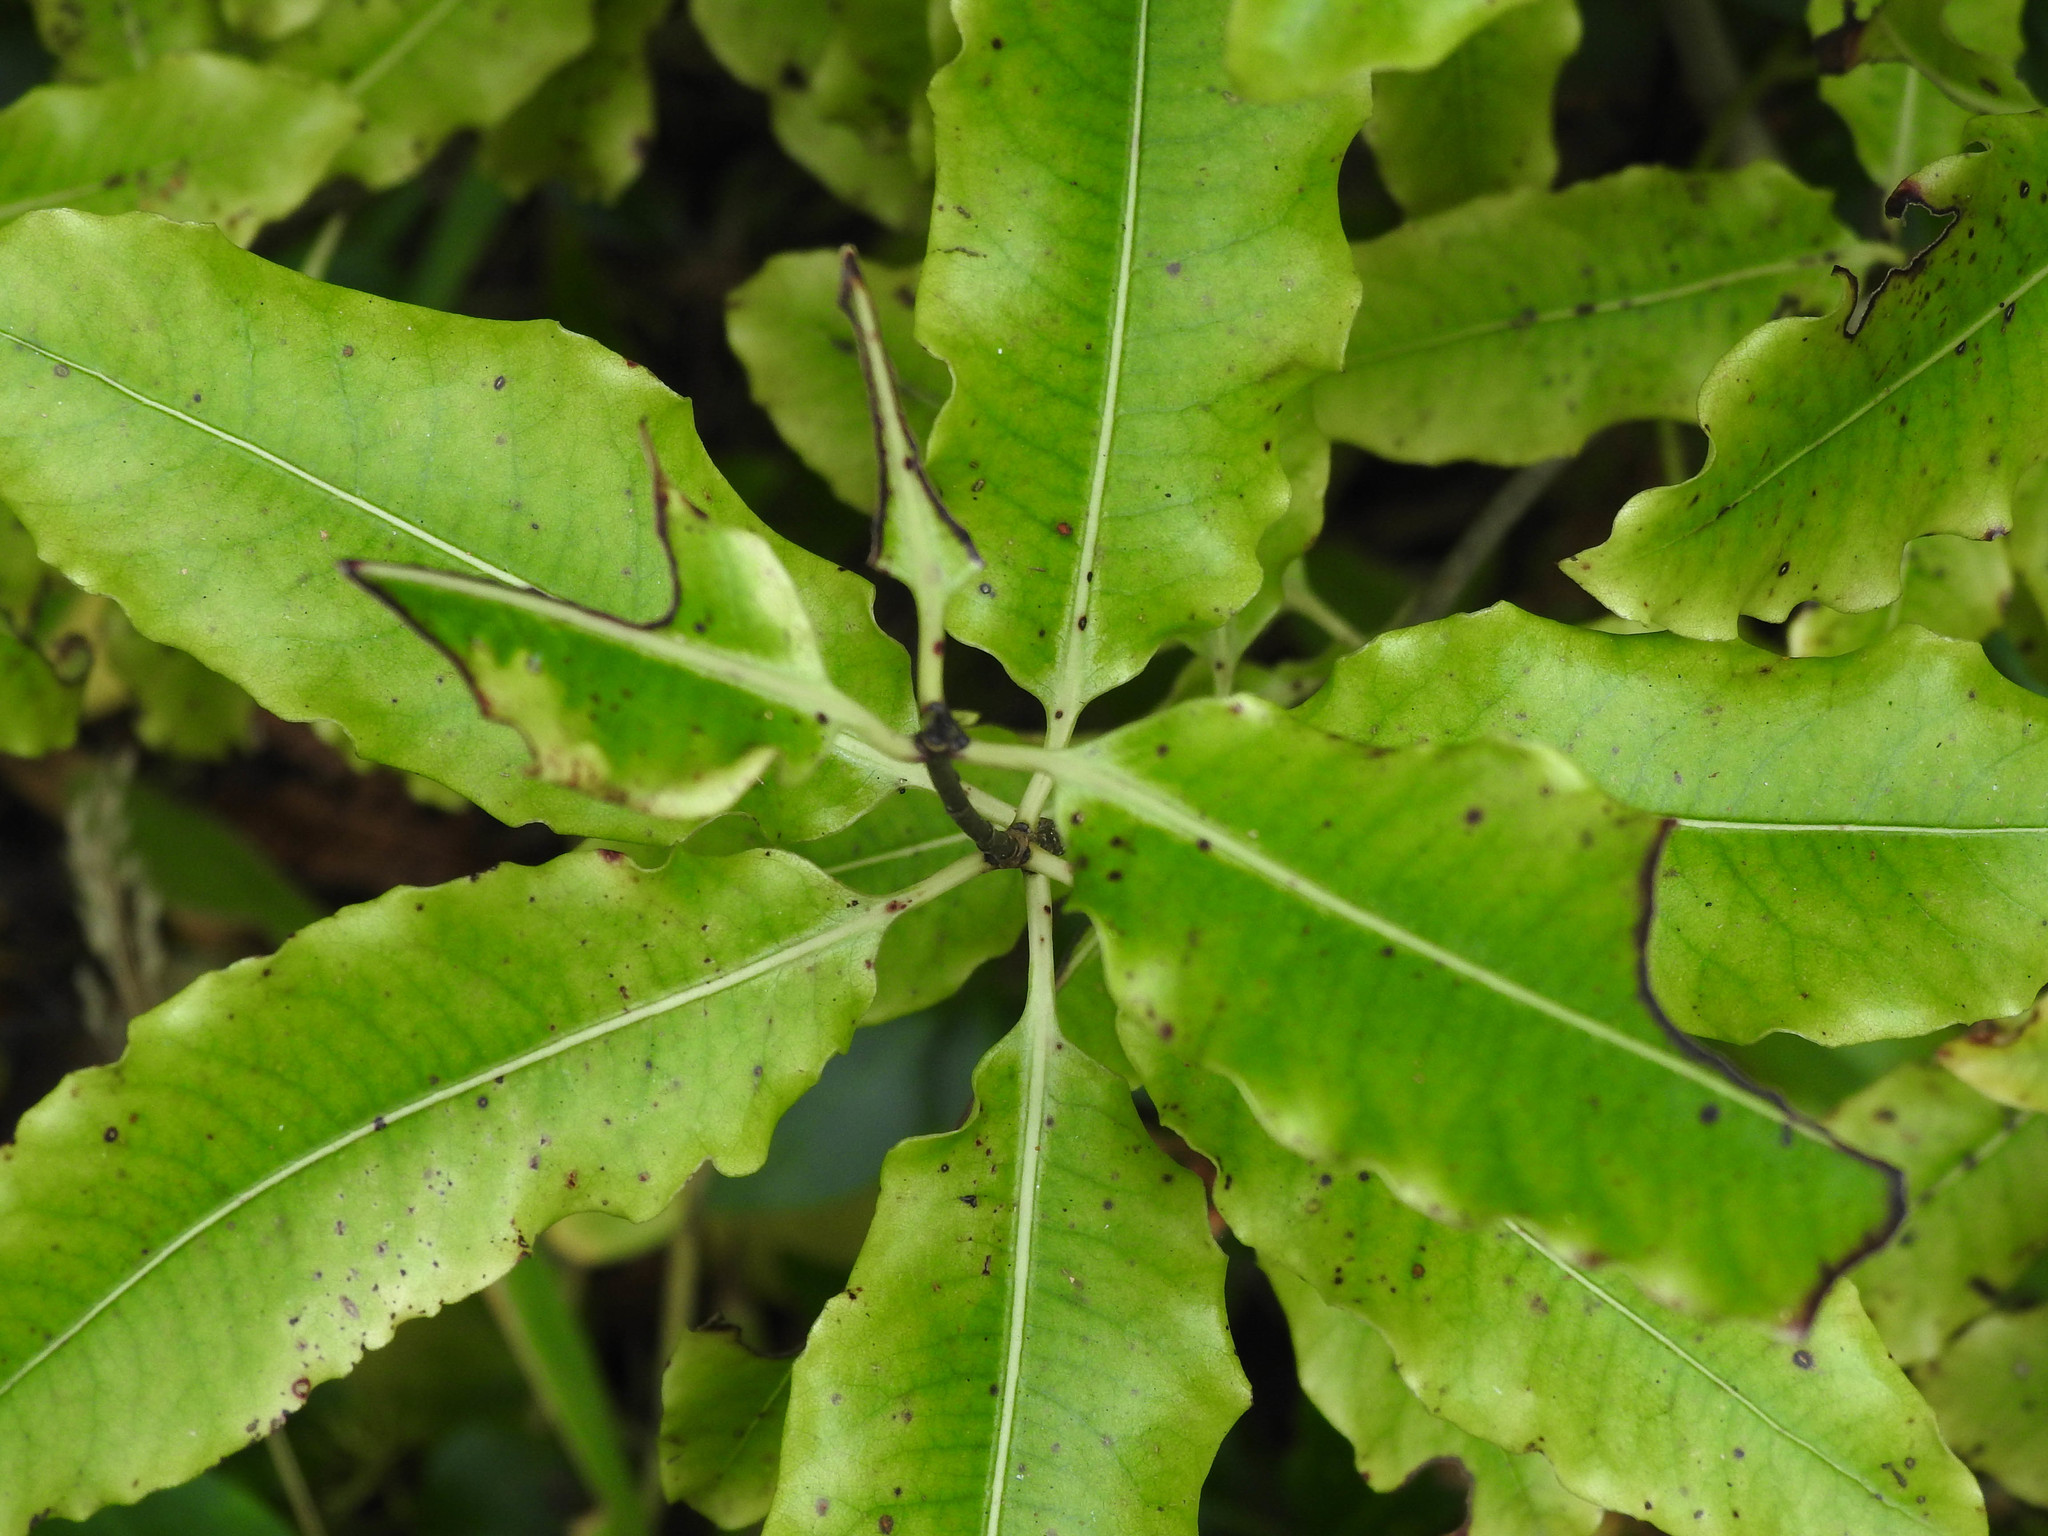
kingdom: Plantae
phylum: Tracheophyta
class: Magnoliopsida
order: Apiales
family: Pittosporaceae
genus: Pittosporum
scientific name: Pittosporum eugenioides
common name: Lemonwood
